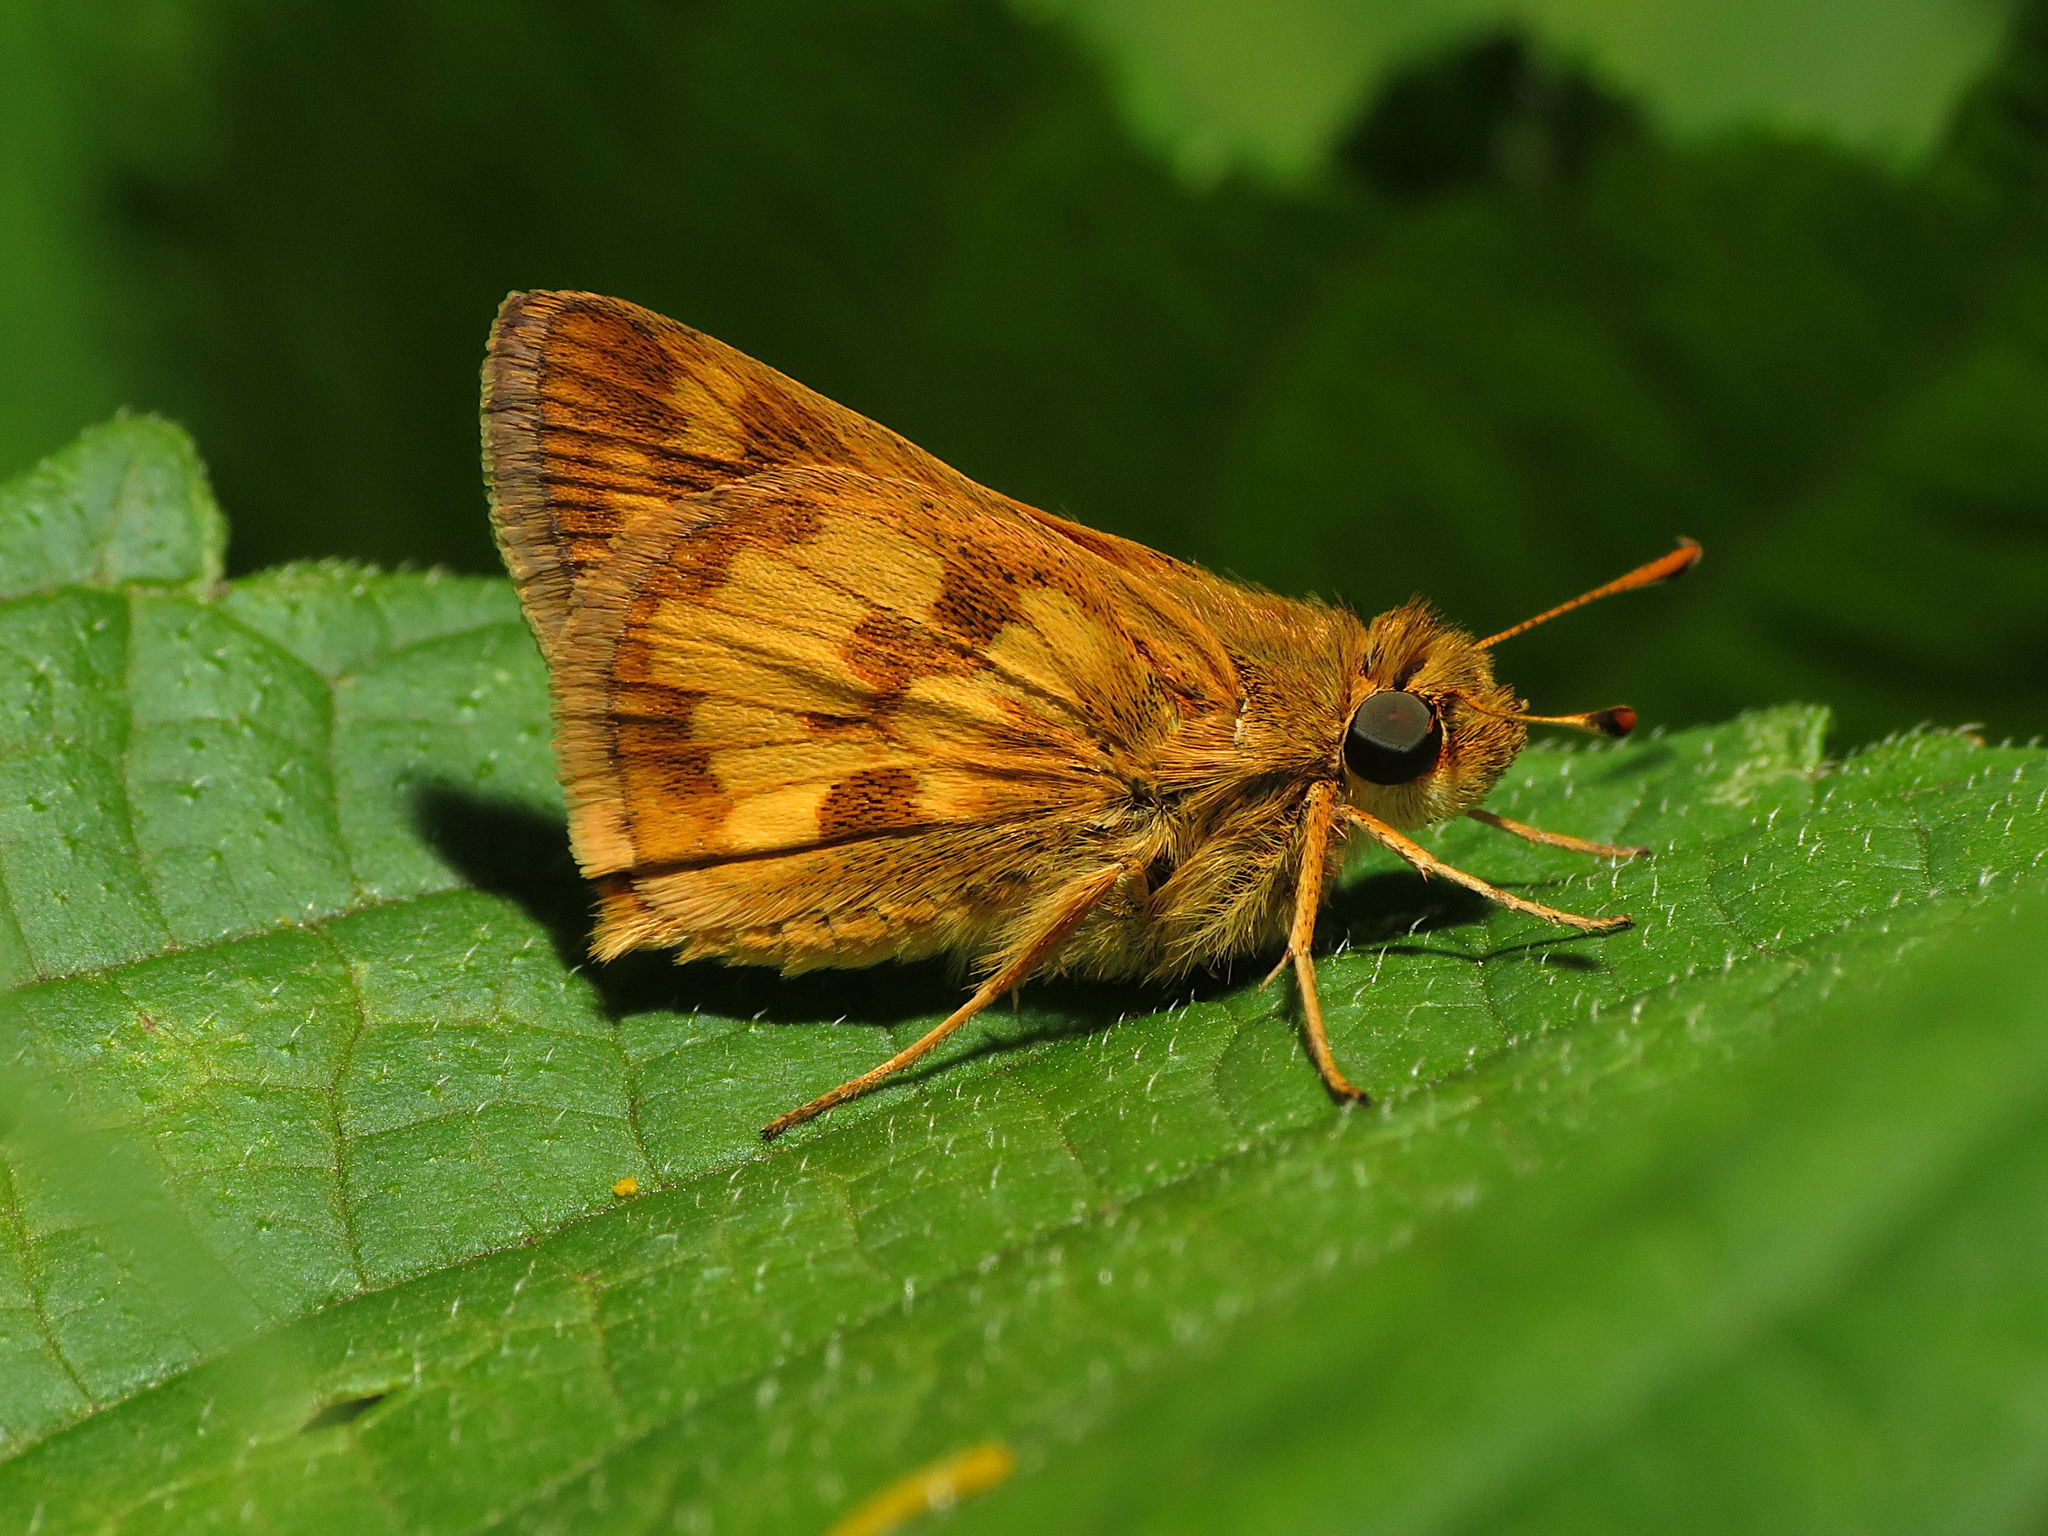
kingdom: Animalia
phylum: Arthropoda
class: Insecta
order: Lepidoptera
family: Hesperiidae
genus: Polites
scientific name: Polites coras
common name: Peck's skipper
